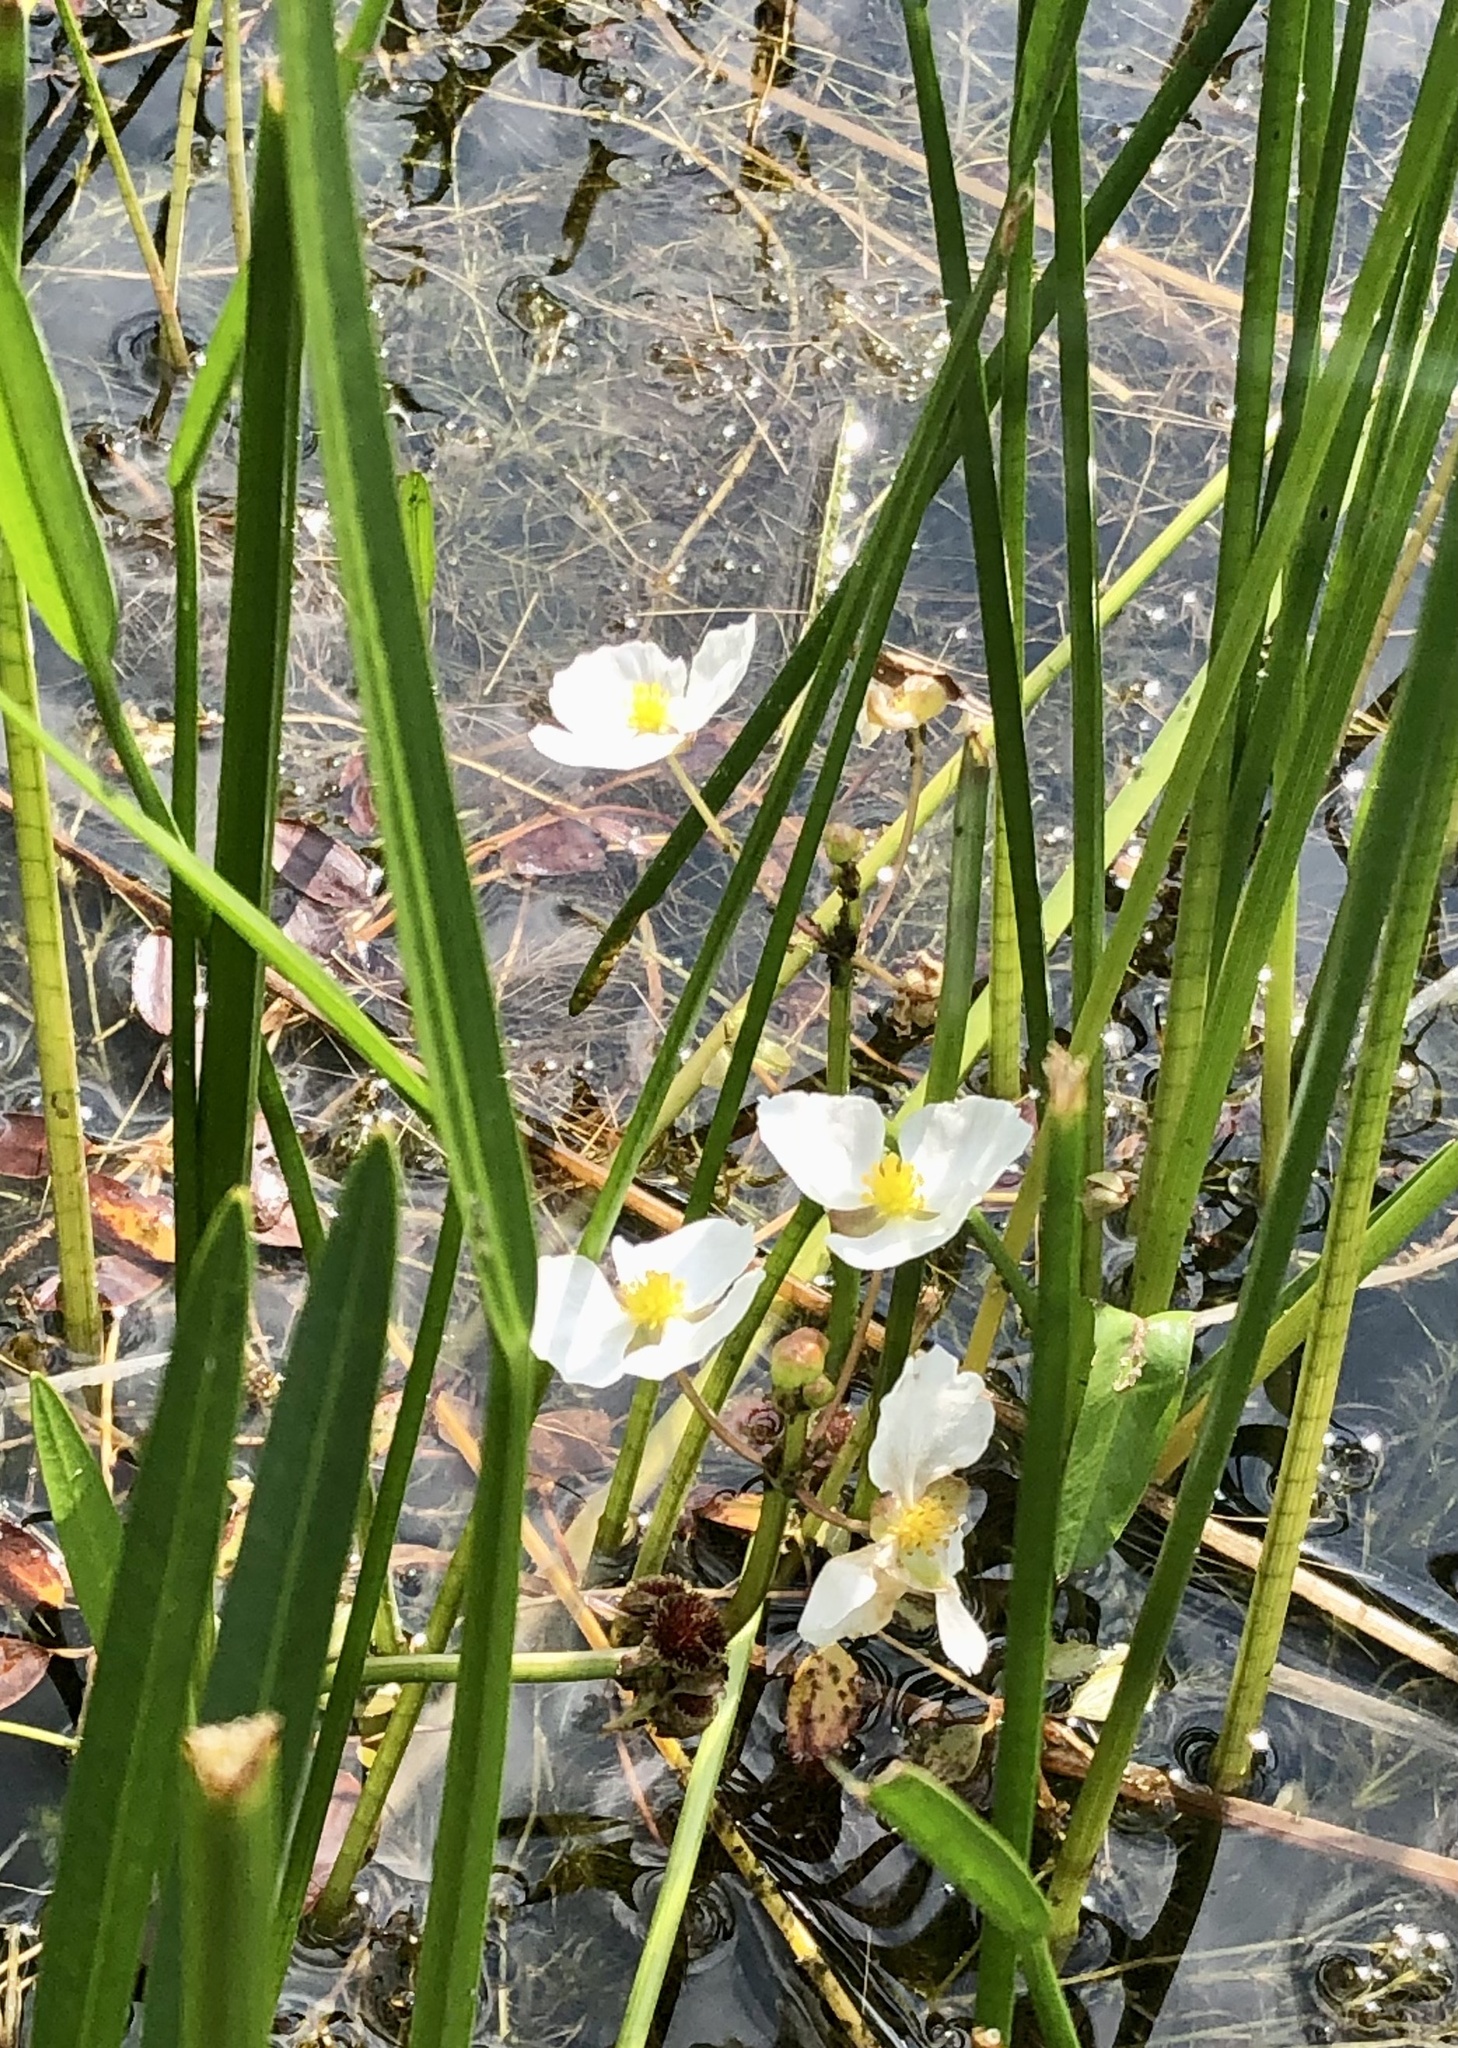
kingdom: Plantae
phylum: Tracheophyta
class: Liliopsida
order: Alismatales
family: Alismataceae
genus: Sagittaria
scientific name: Sagittaria rigida
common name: Canadian arrowhead
